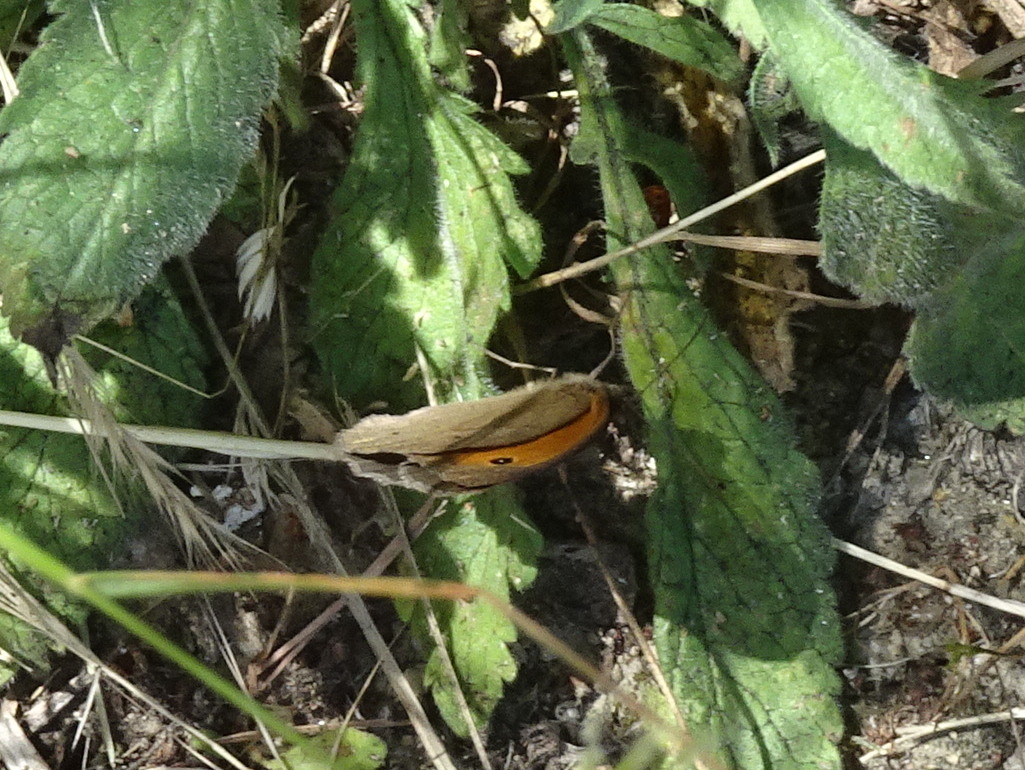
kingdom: Animalia
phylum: Arthropoda
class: Insecta
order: Lepidoptera
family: Nymphalidae
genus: Maniola
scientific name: Maniola jurtina
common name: Meadow brown
